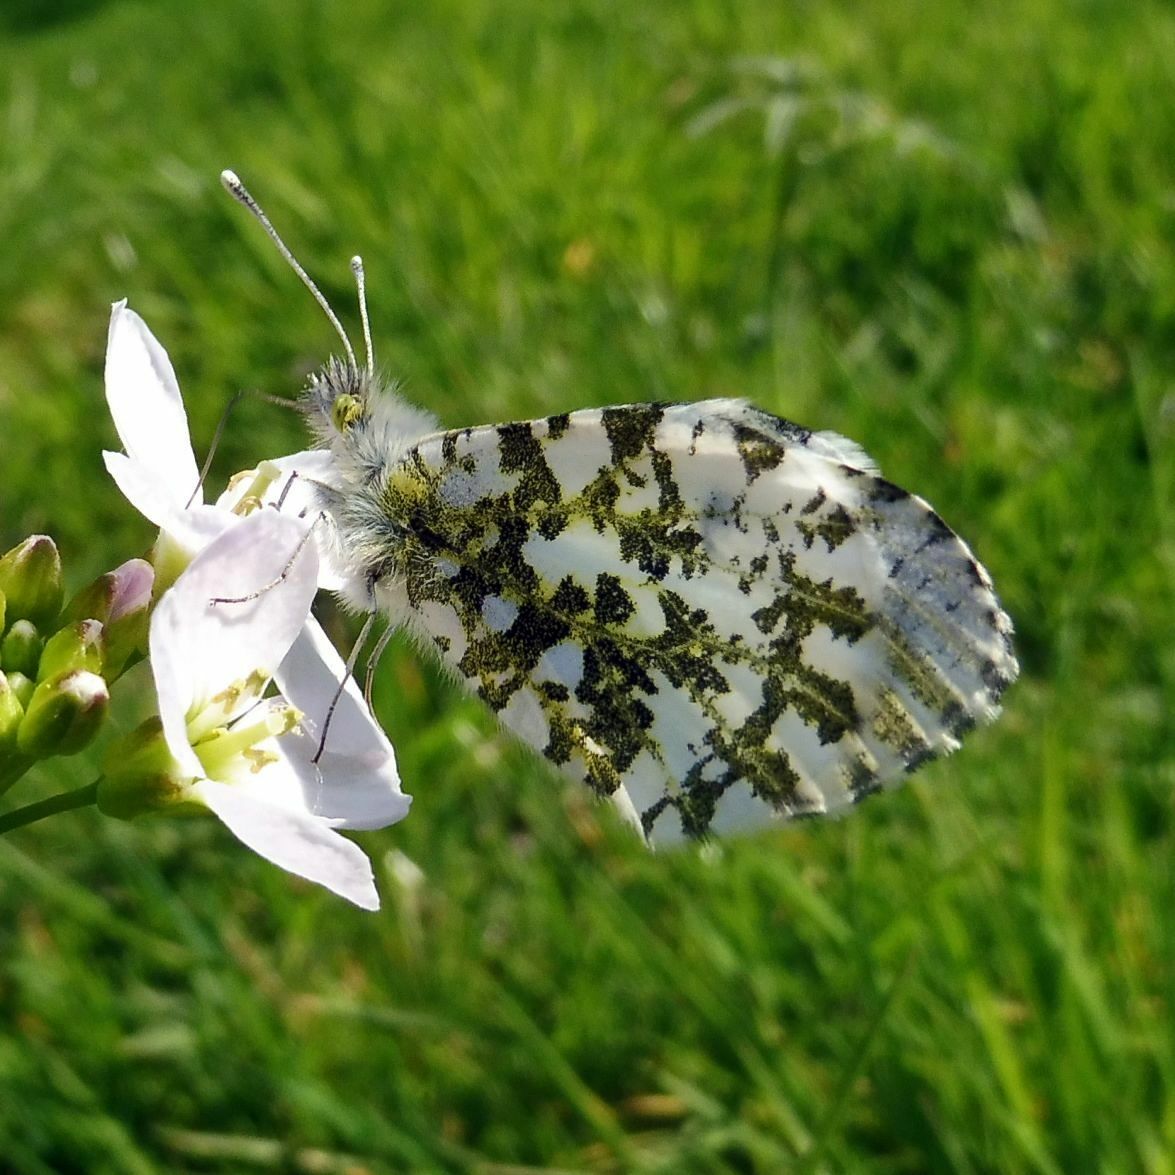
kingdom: Animalia
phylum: Arthropoda
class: Insecta
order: Lepidoptera
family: Pieridae
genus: Anthocharis
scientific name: Anthocharis cardamines
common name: Orange-tip
